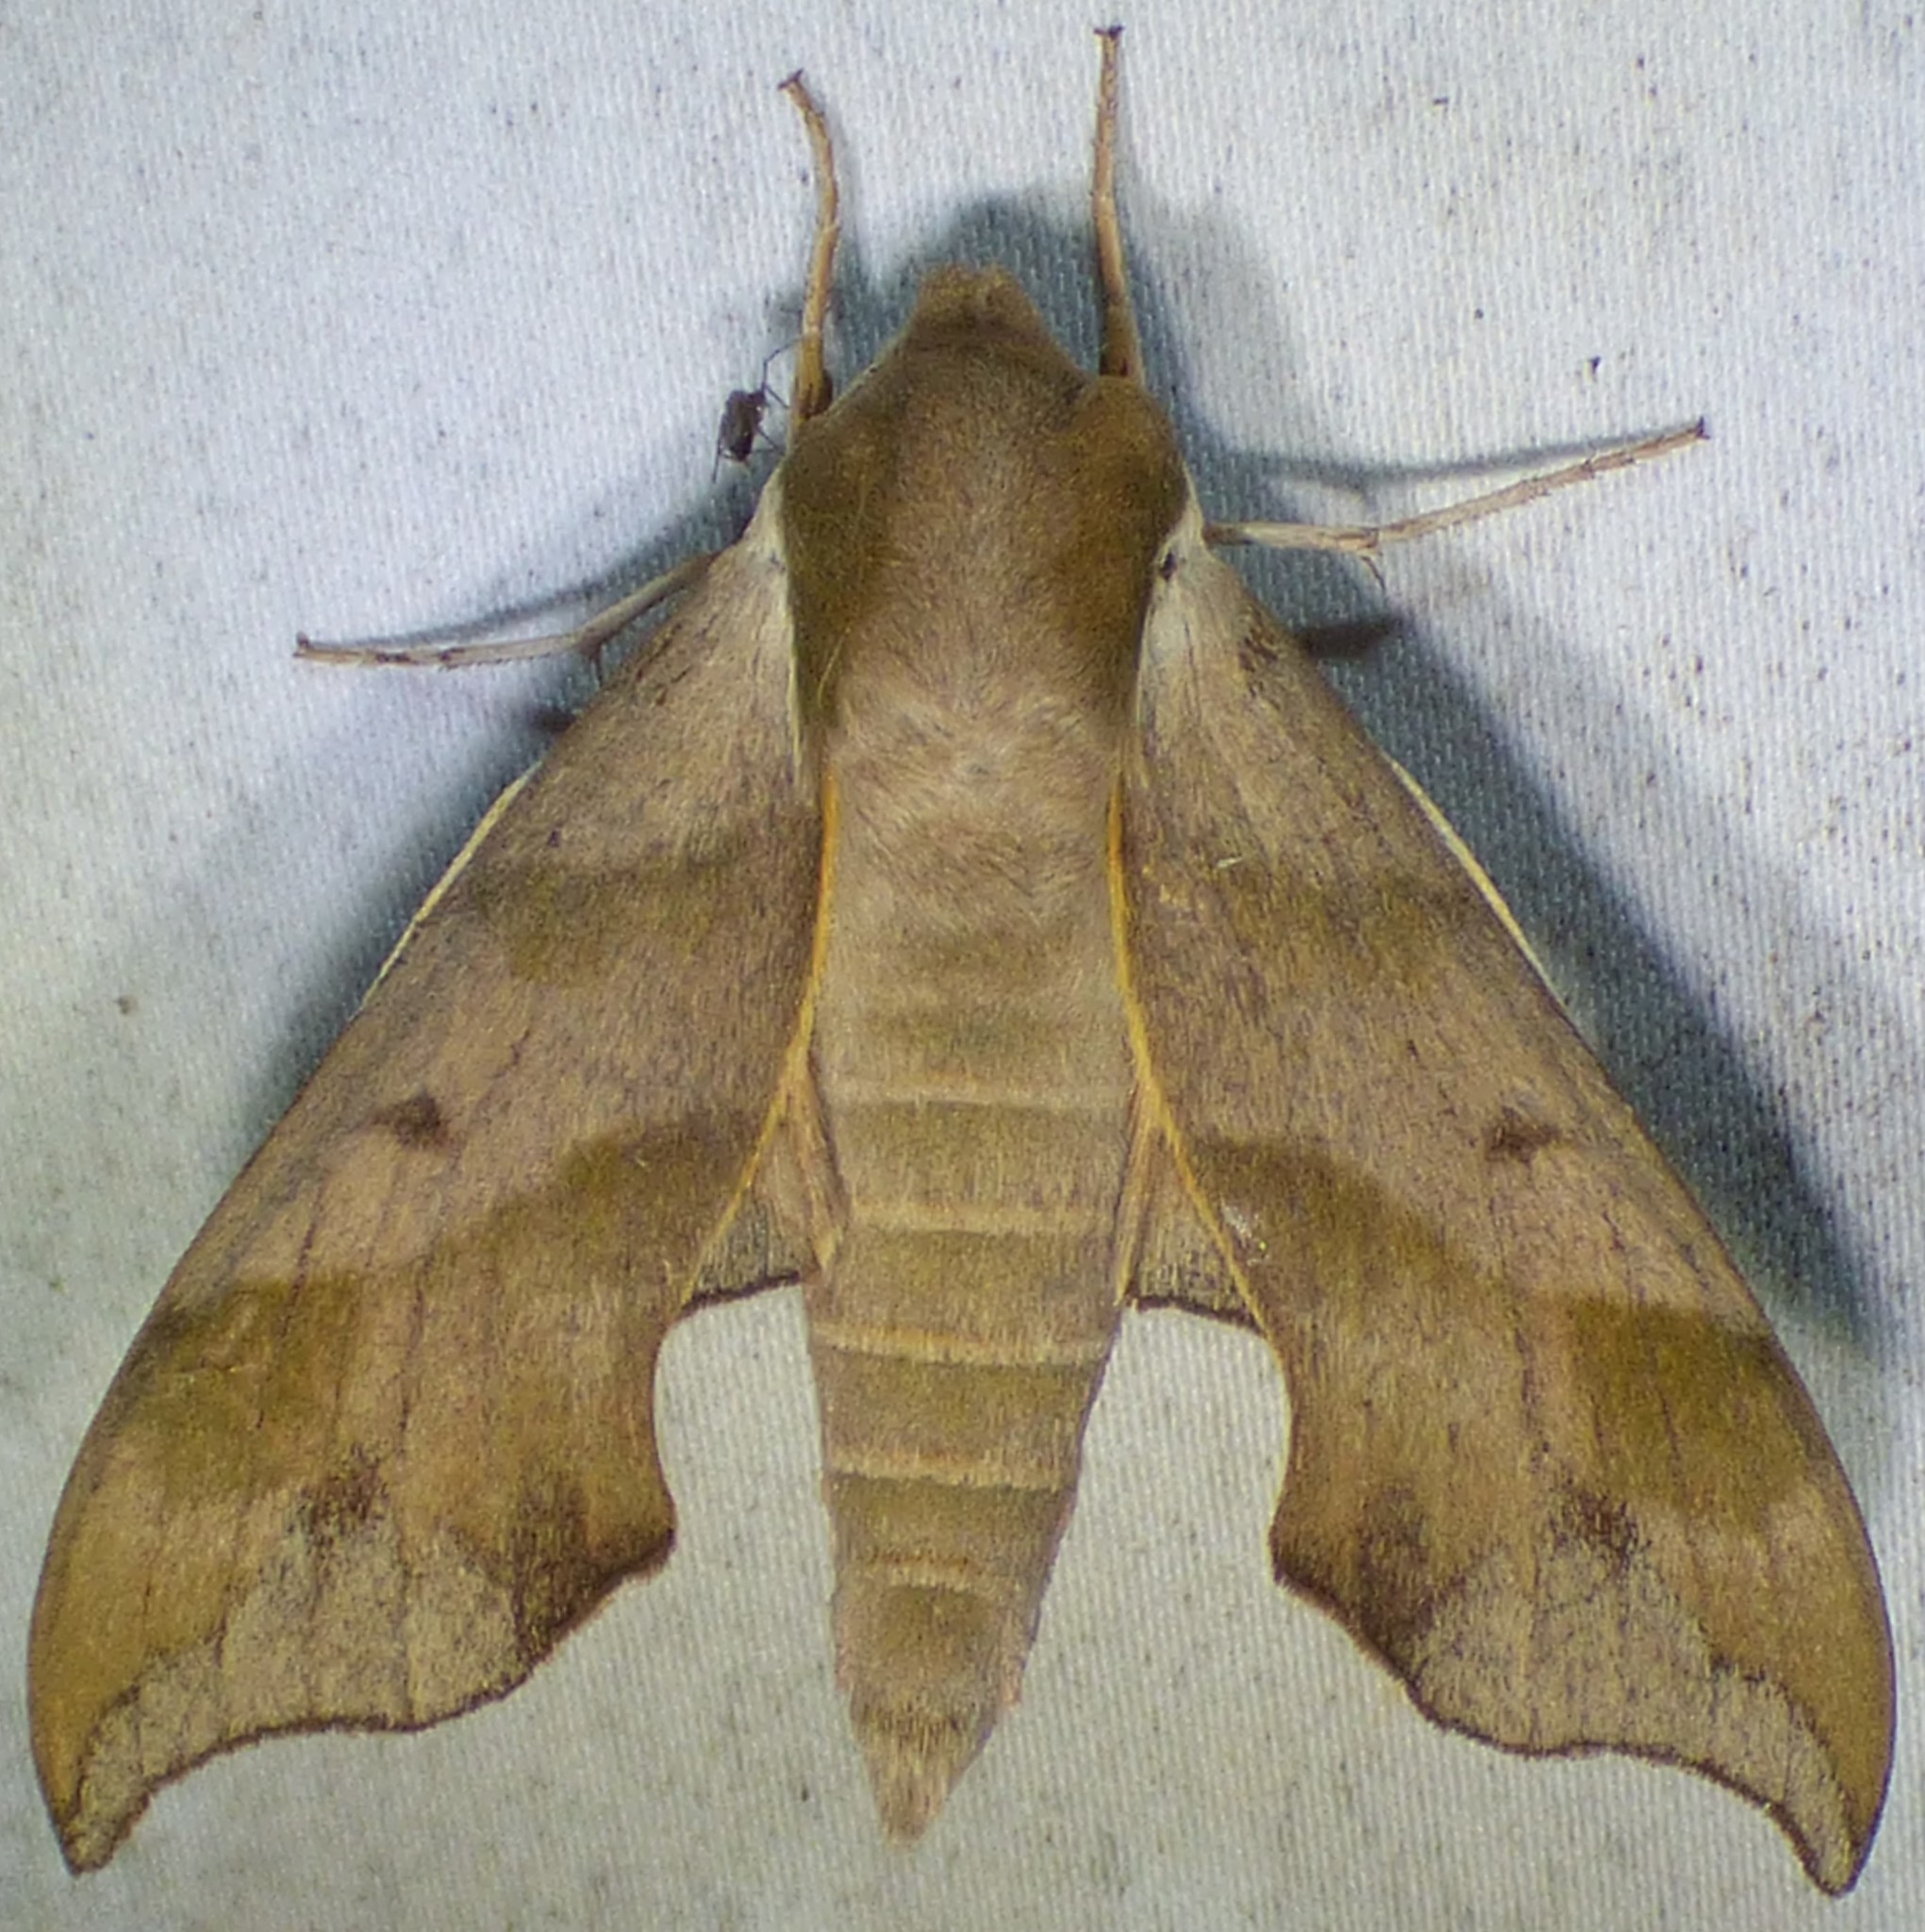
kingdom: Animalia
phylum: Arthropoda
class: Insecta
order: Lepidoptera
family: Sphingidae
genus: Darapsa
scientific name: Darapsa myron
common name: Hog sphinx
